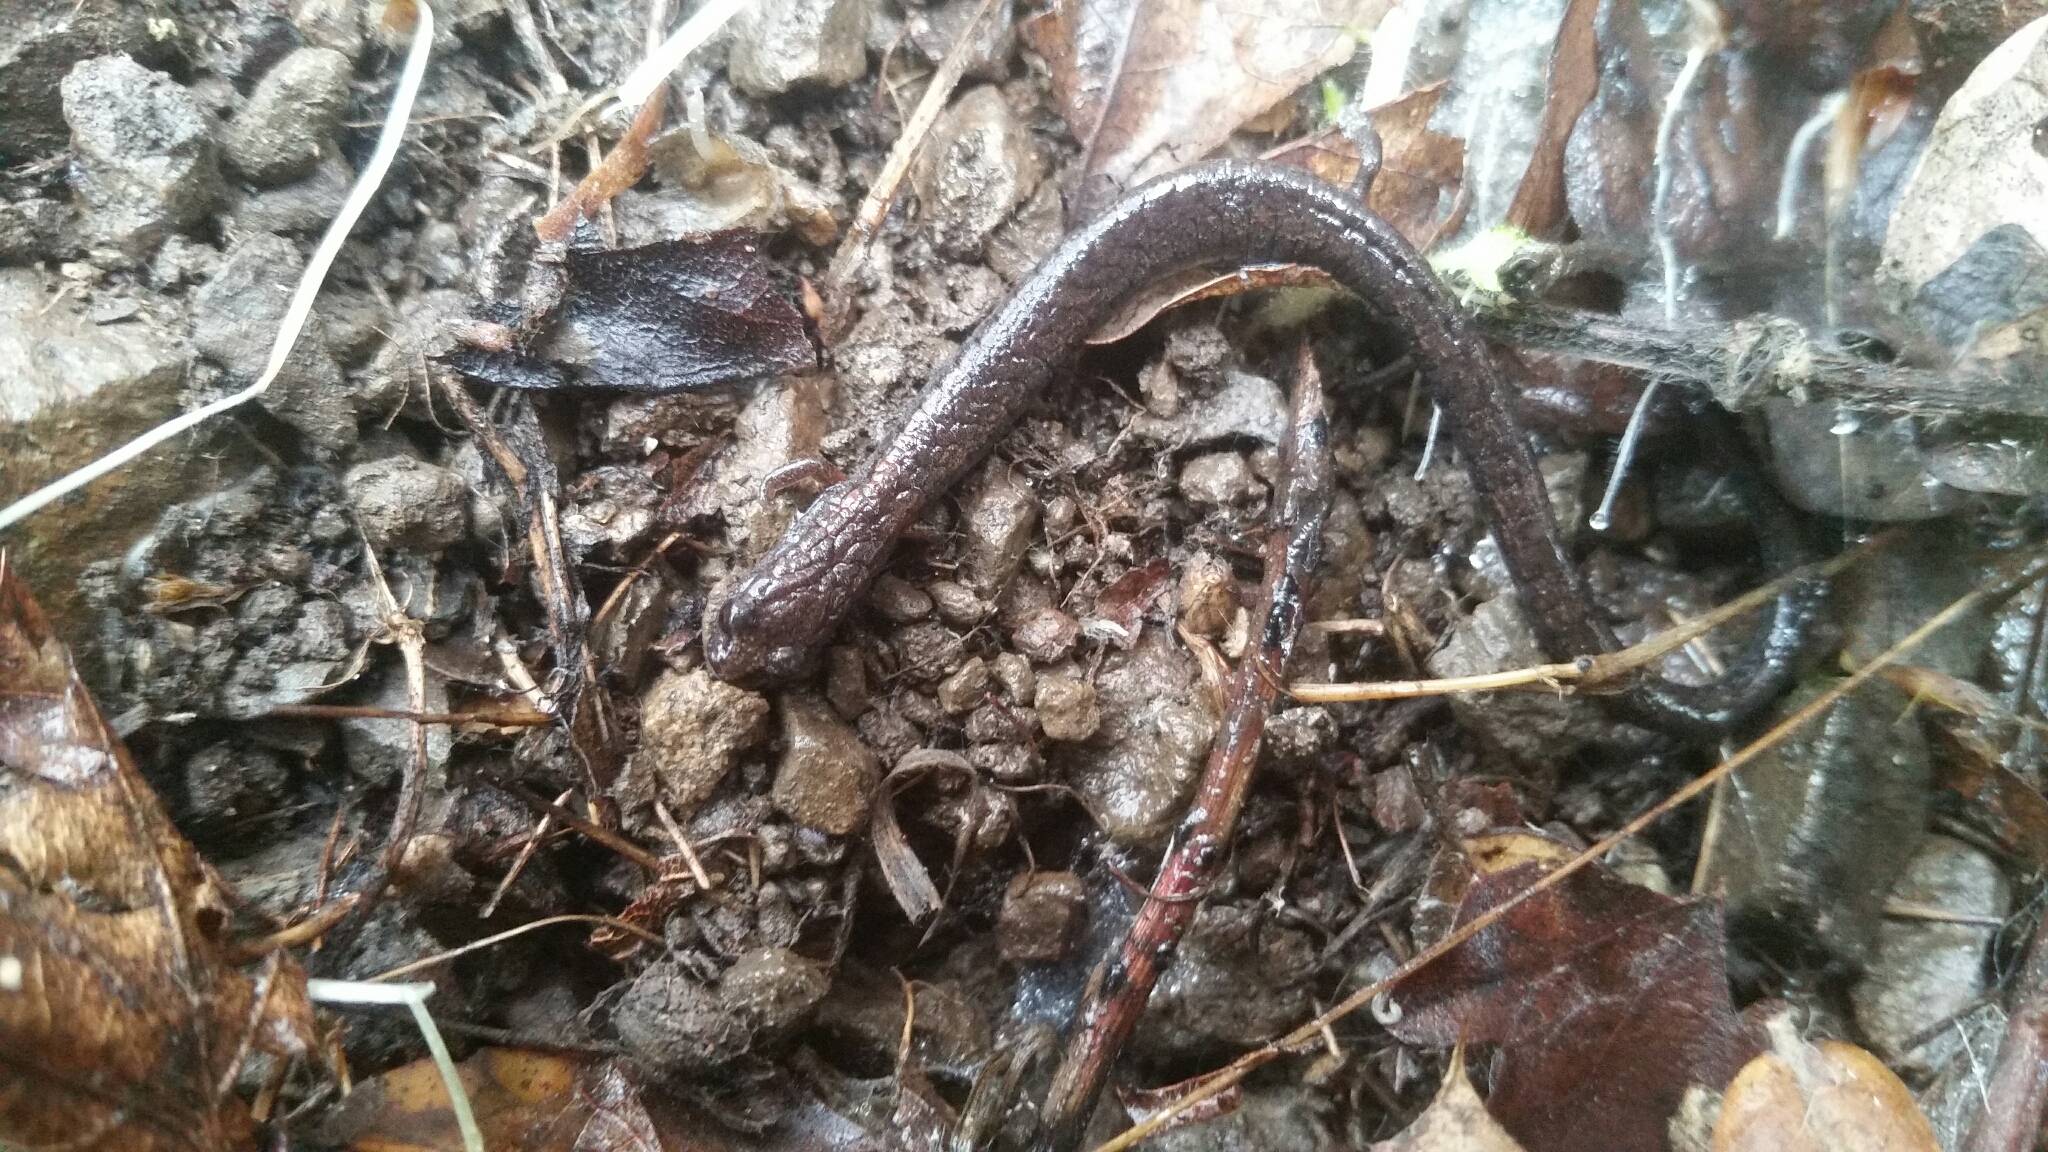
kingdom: Animalia
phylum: Chordata
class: Amphibia
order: Caudata
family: Plethodontidae
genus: Batrachoseps
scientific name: Batrachoseps attenuatus
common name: California slender salamander
